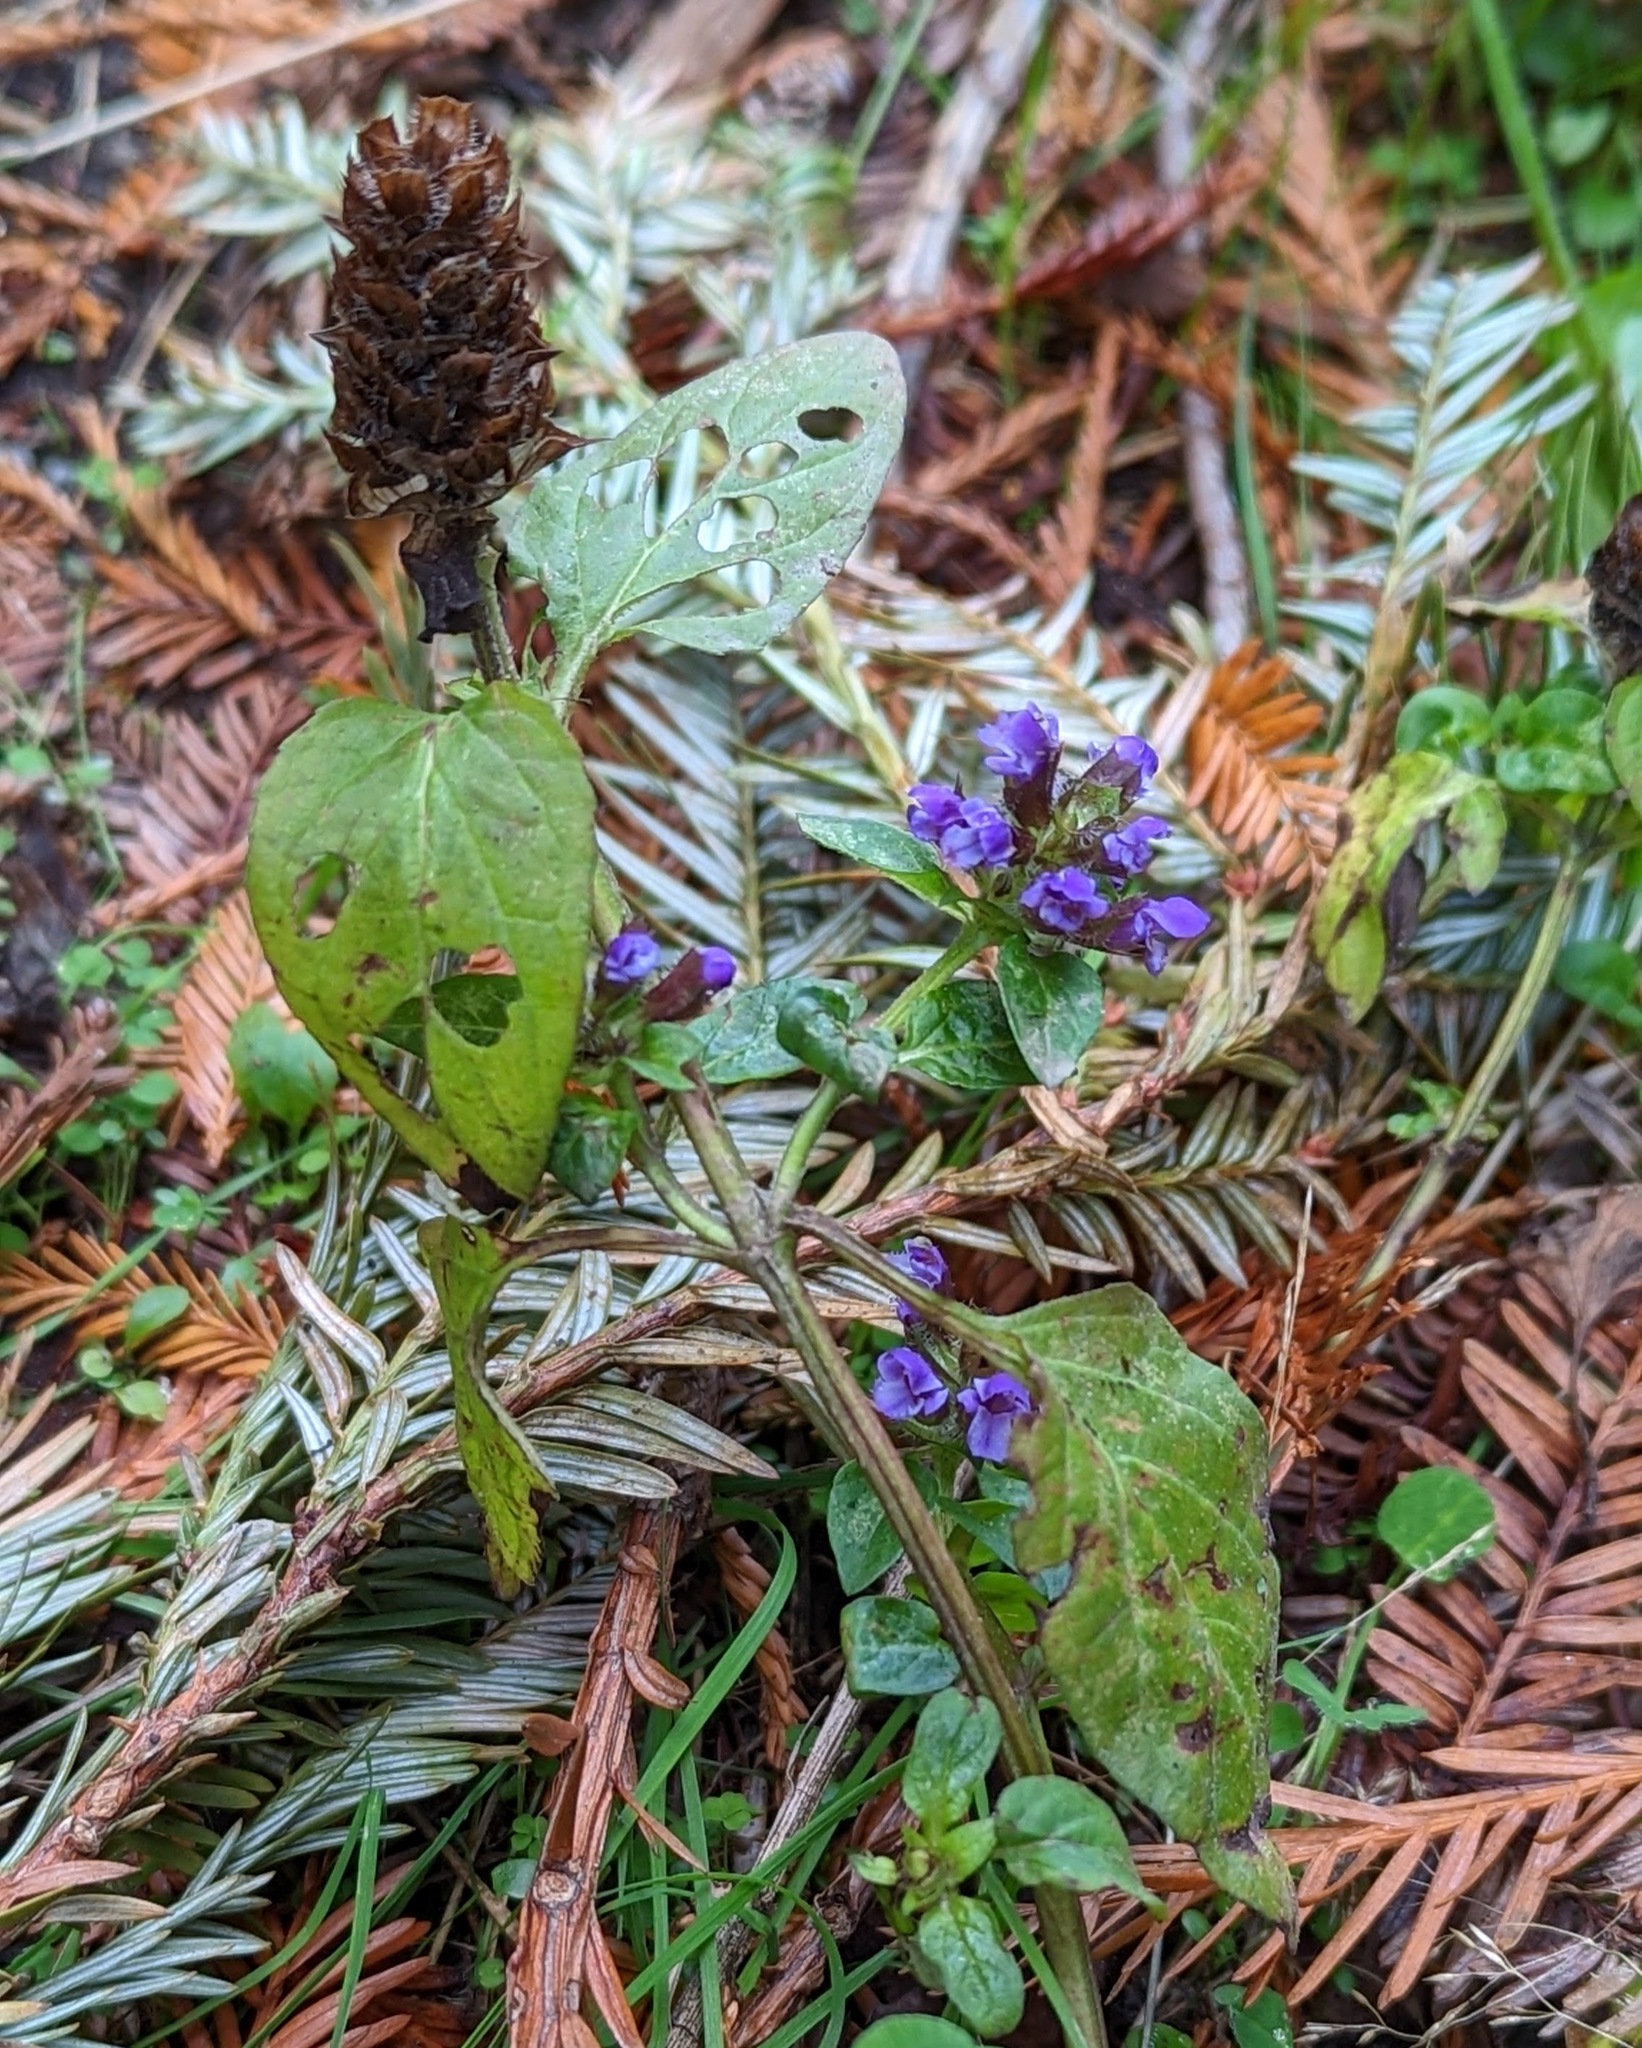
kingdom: Plantae
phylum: Tracheophyta
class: Magnoliopsida
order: Lamiales
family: Lamiaceae
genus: Prunella
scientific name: Prunella vulgaris
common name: Heal-all
